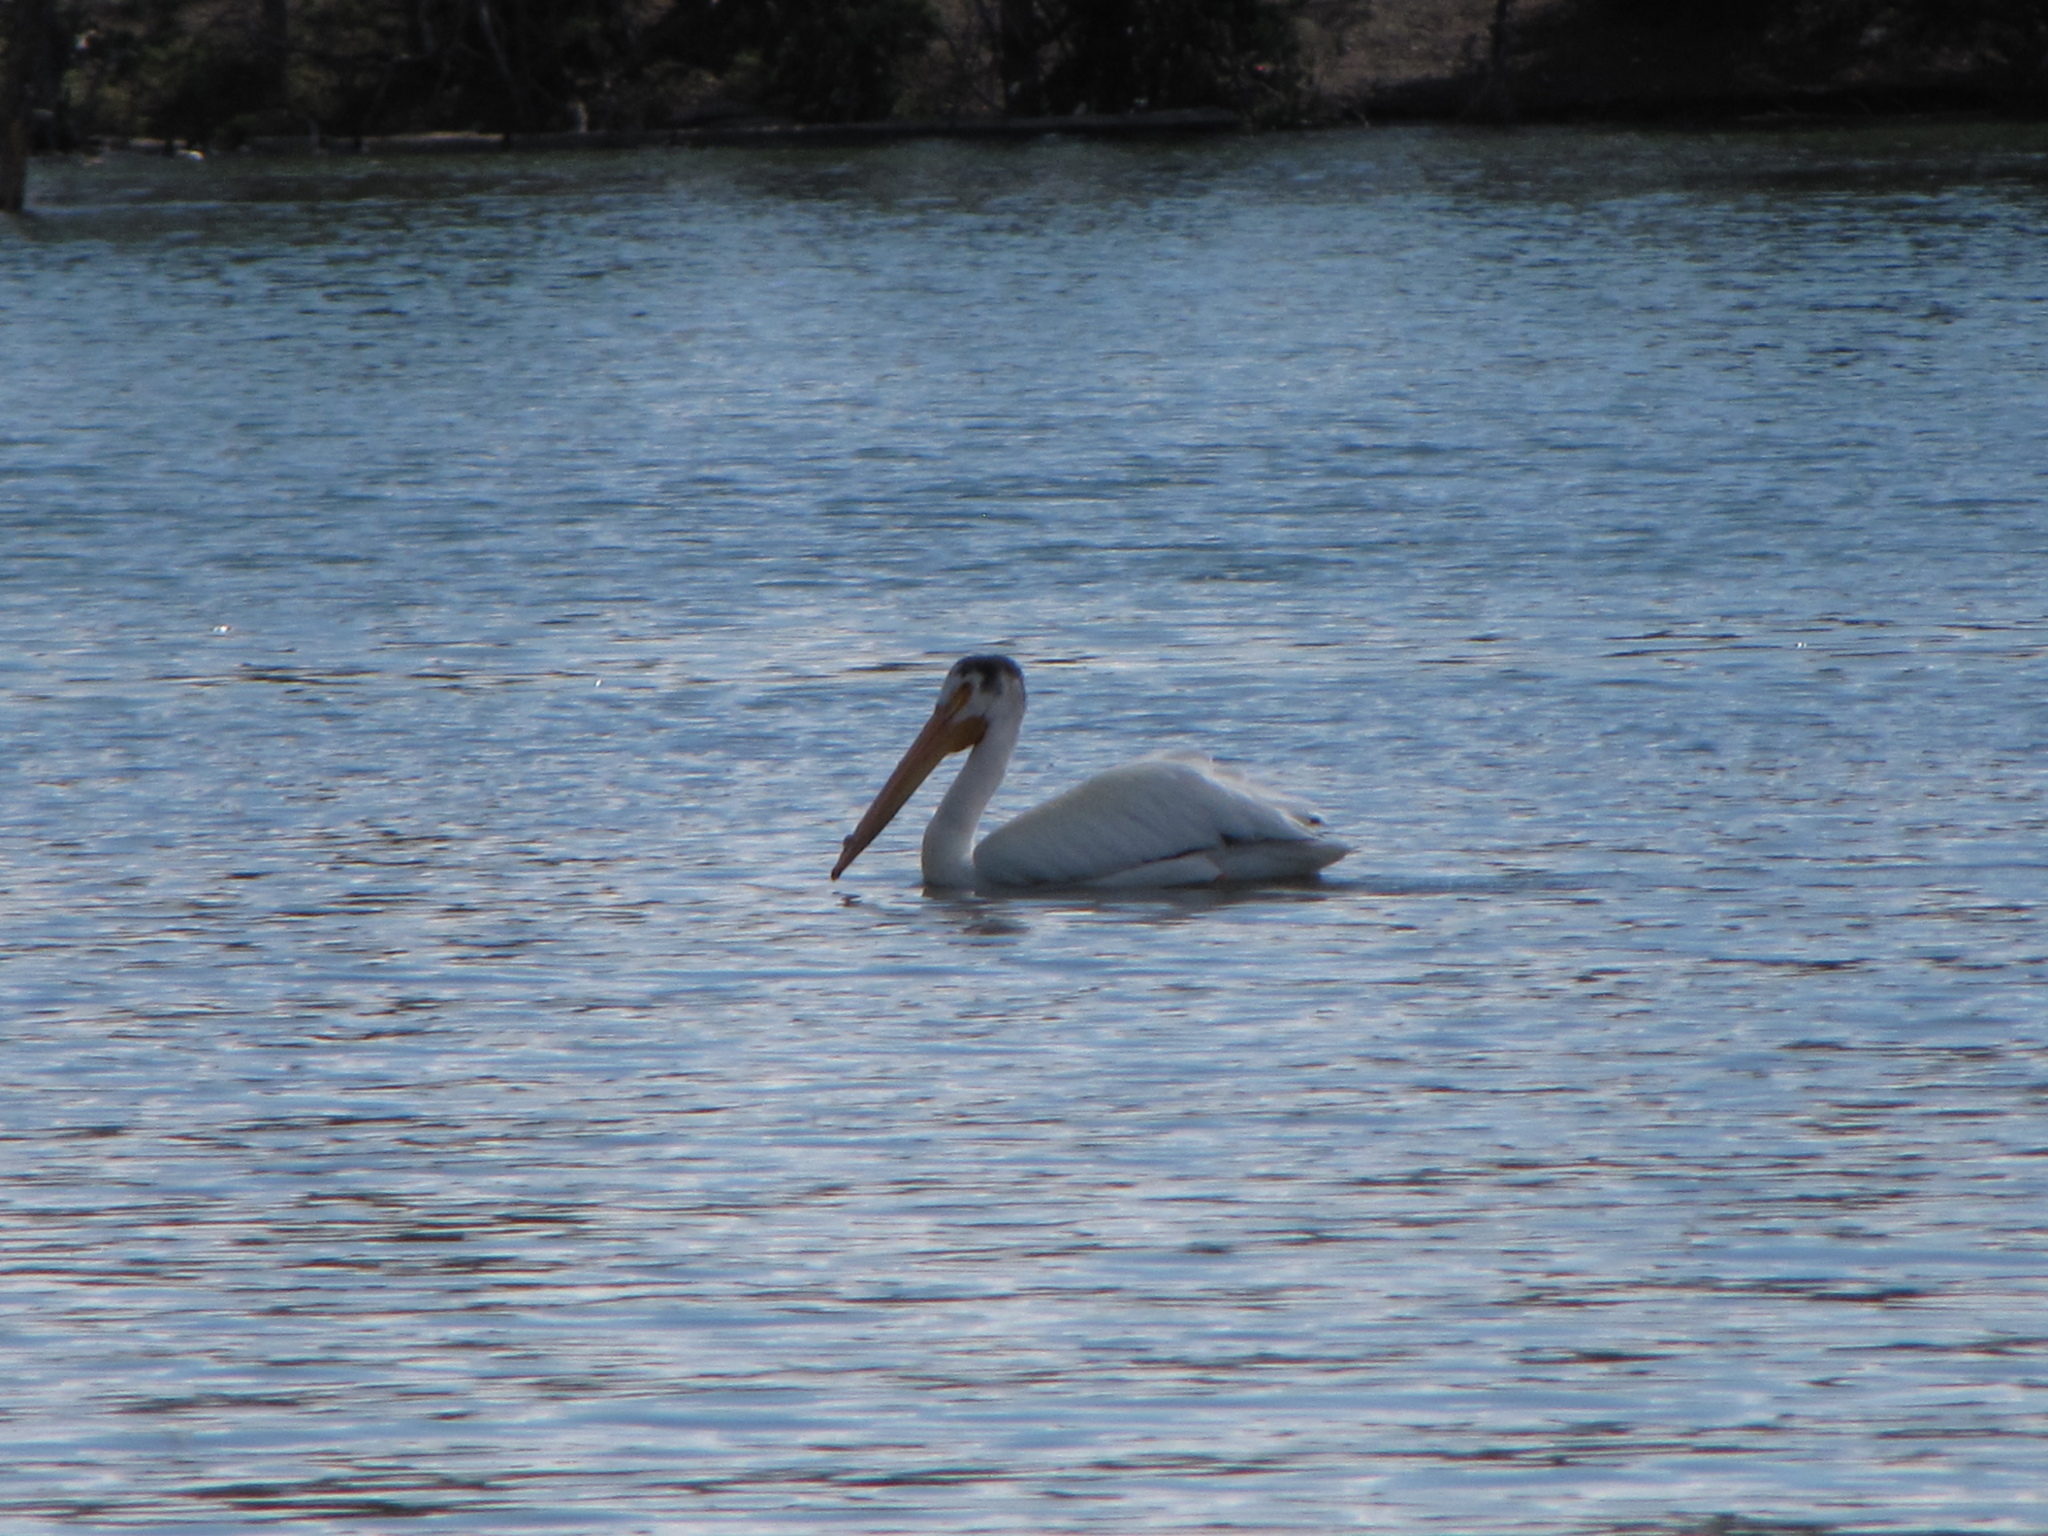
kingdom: Animalia
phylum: Chordata
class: Aves
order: Pelecaniformes
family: Pelecanidae
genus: Pelecanus
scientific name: Pelecanus erythrorhynchos
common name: American white pelican
